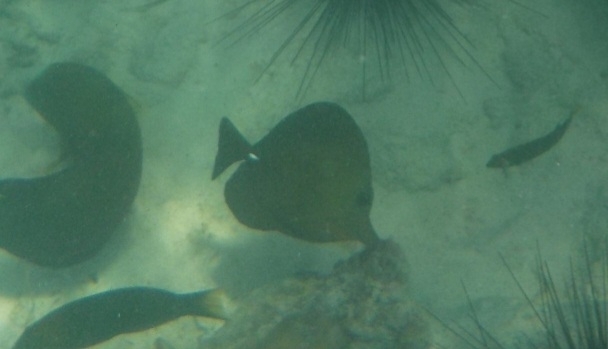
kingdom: Animalia
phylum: Chordata
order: Perciformes
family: Acanthuridae
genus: Zebrasoma
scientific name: Zebrasoma scopas
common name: Twotone tang
